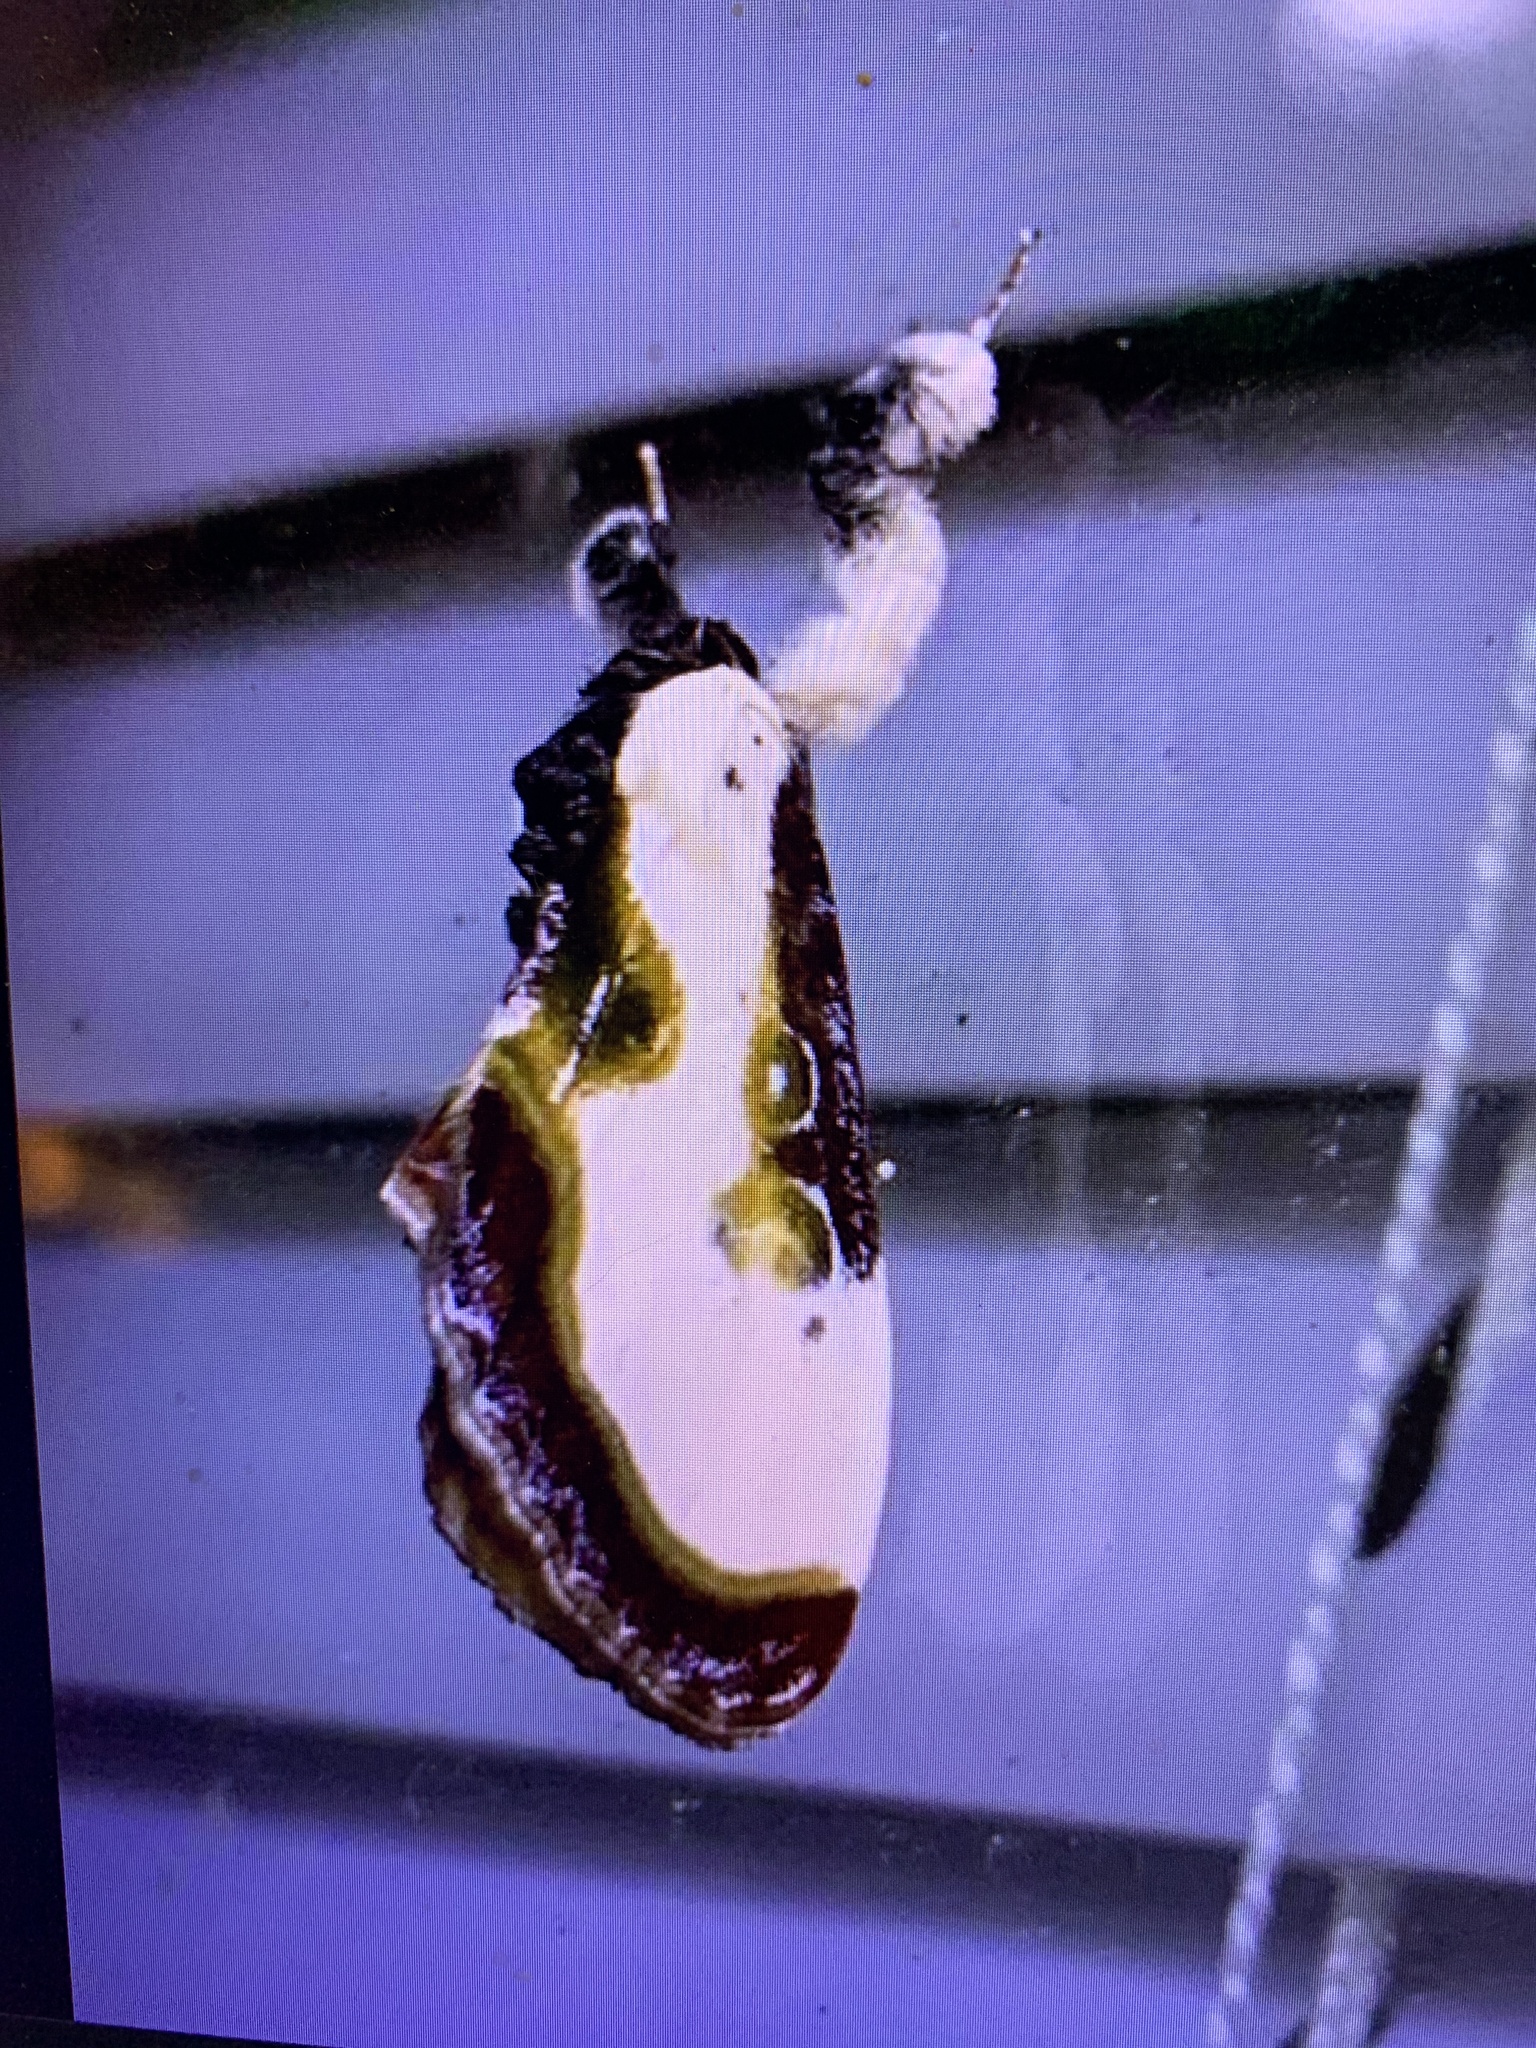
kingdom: Animalia
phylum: Arthropoda
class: Insecta
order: Lepidoptera
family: Noctuidae
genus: Eudryas
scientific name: Eudryas grata
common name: Beautiful wood-nymph
